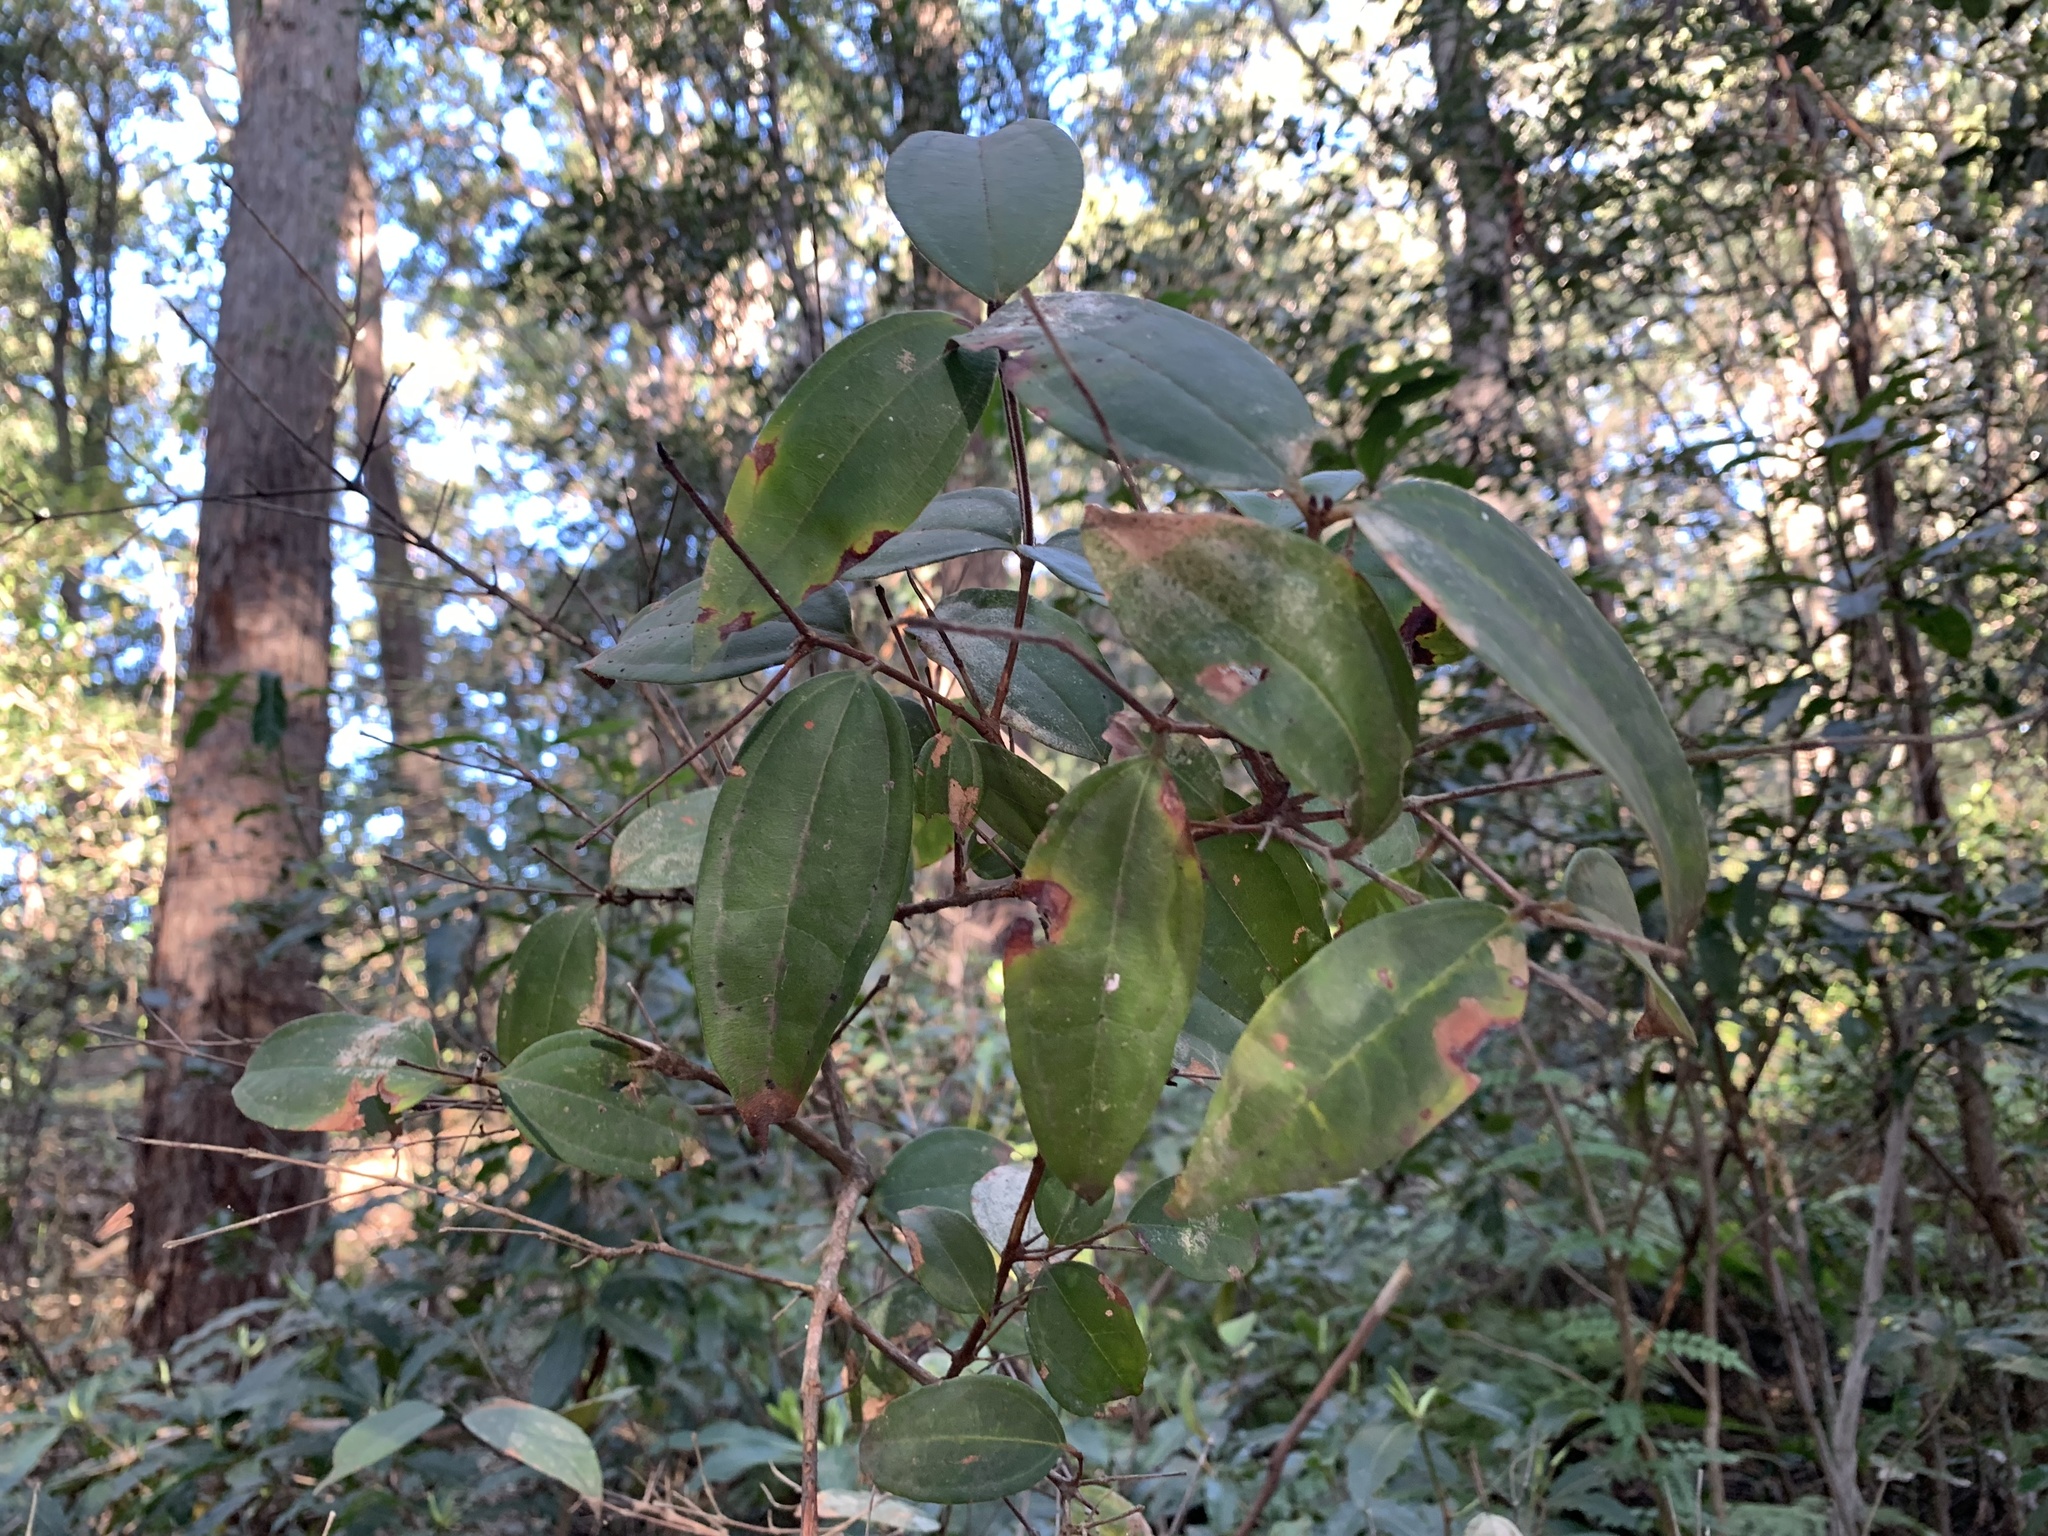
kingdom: Plantae
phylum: Tracheophyta
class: Magnoliopsida
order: Myrtales
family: Myrtaceae
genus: Rhodamnia
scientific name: Rhodamnia rubescens
